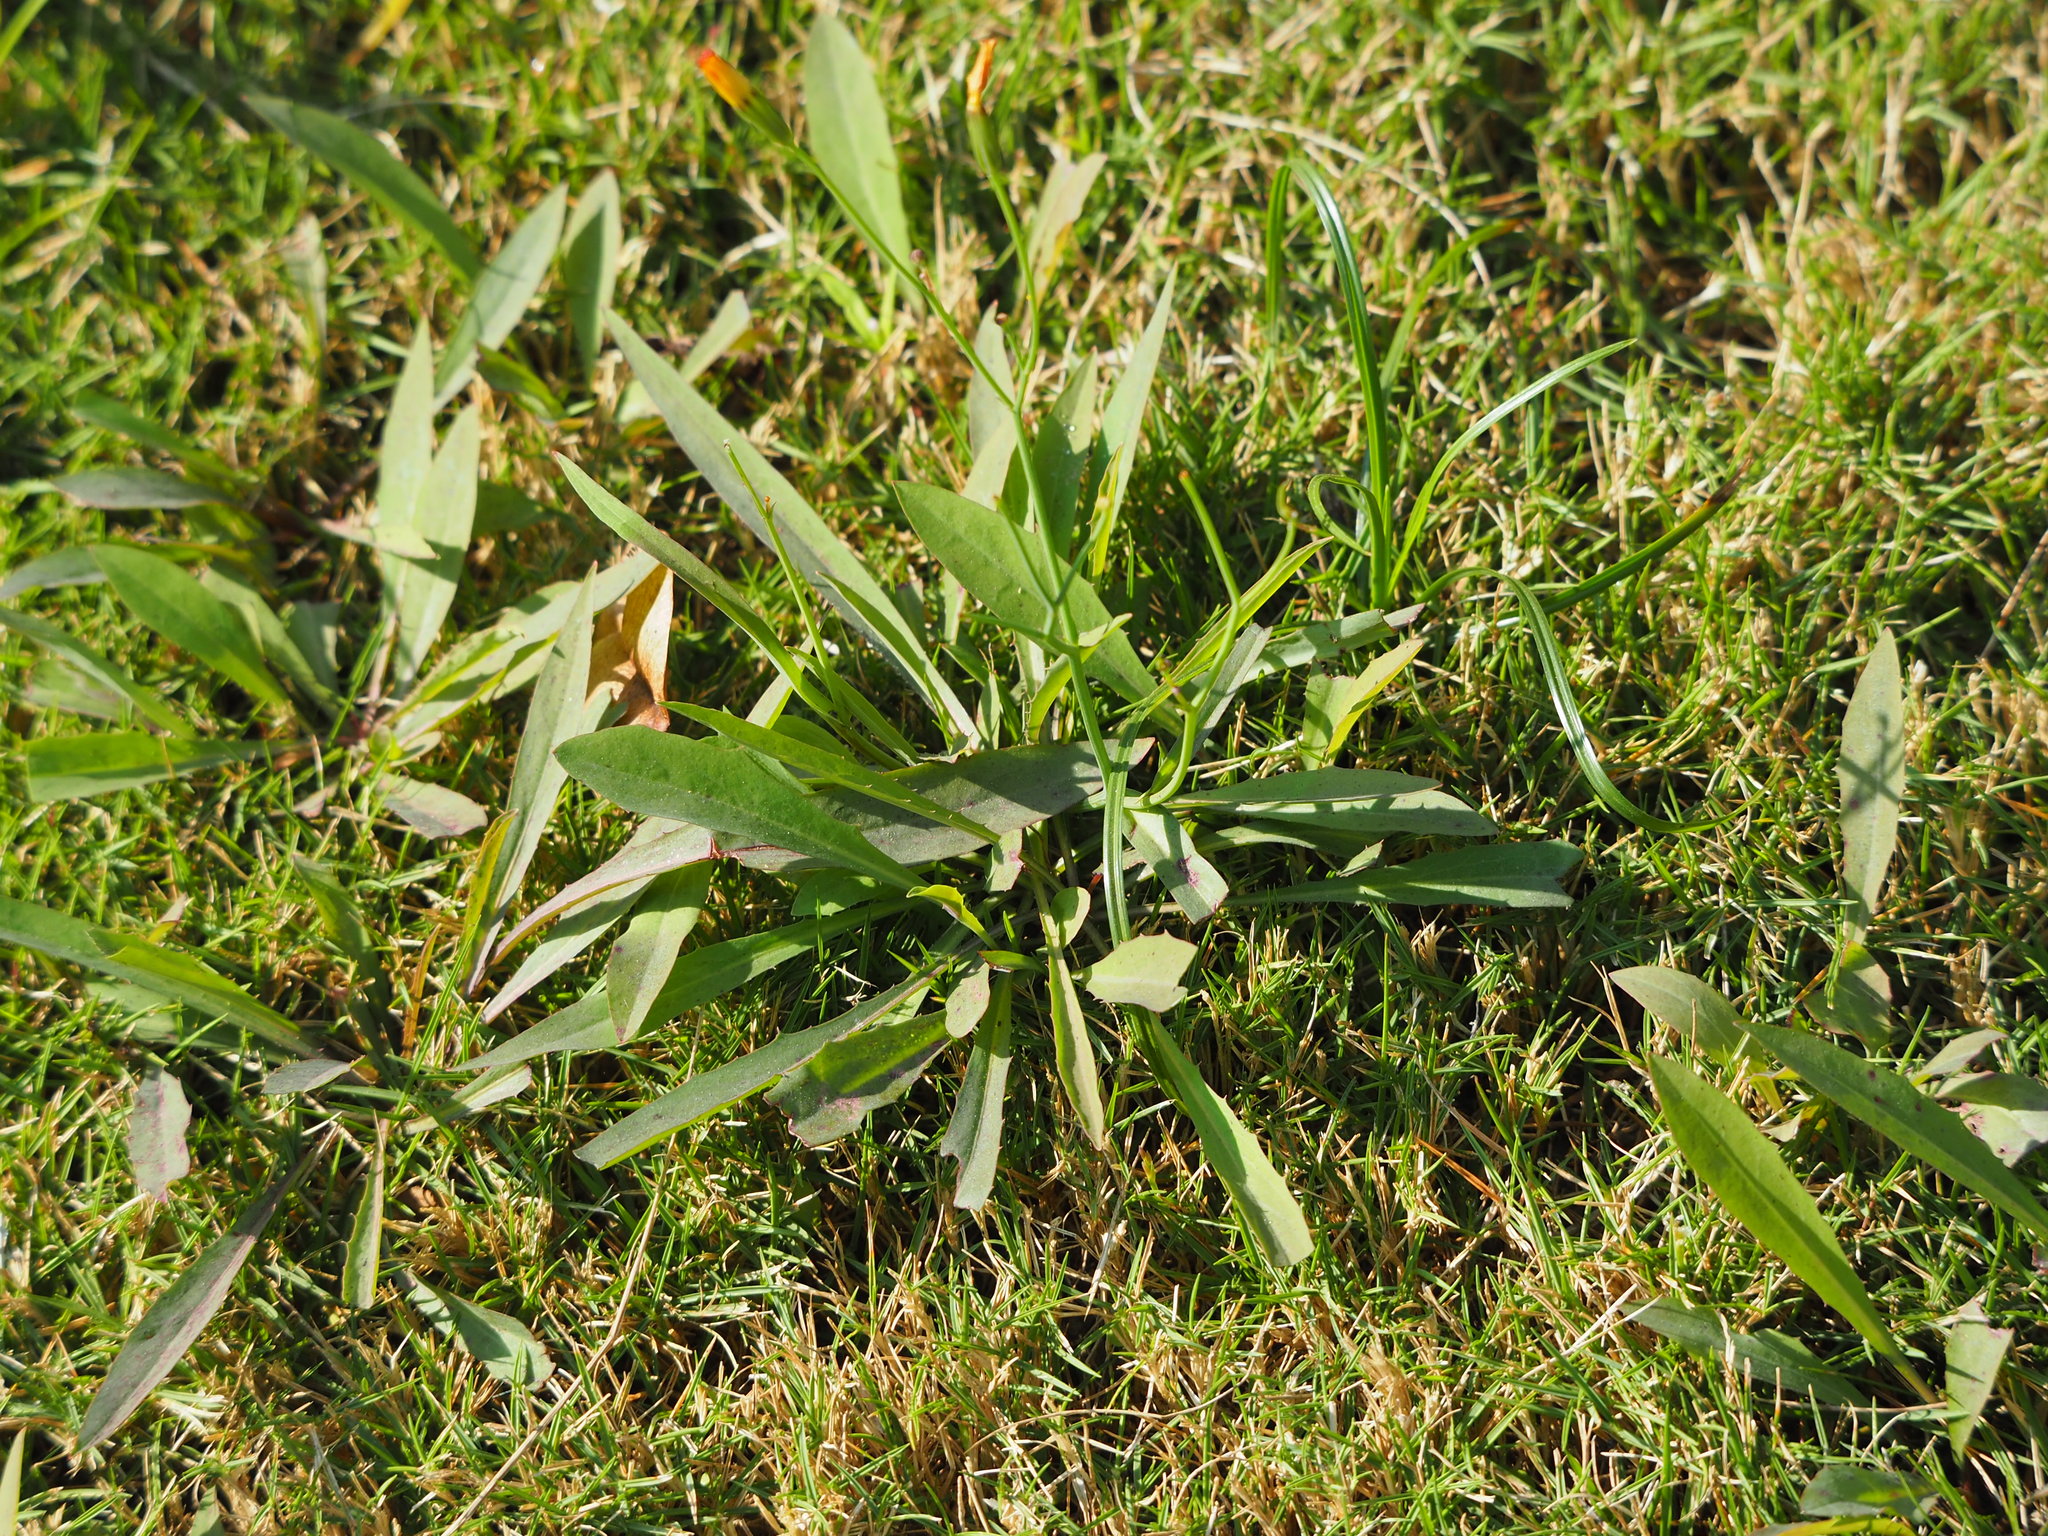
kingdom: Plantae
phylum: Tracheophyta
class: Magnoliopsida
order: Asterales
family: Asteraceae
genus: Ixeris
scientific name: Ixeris chinensis
